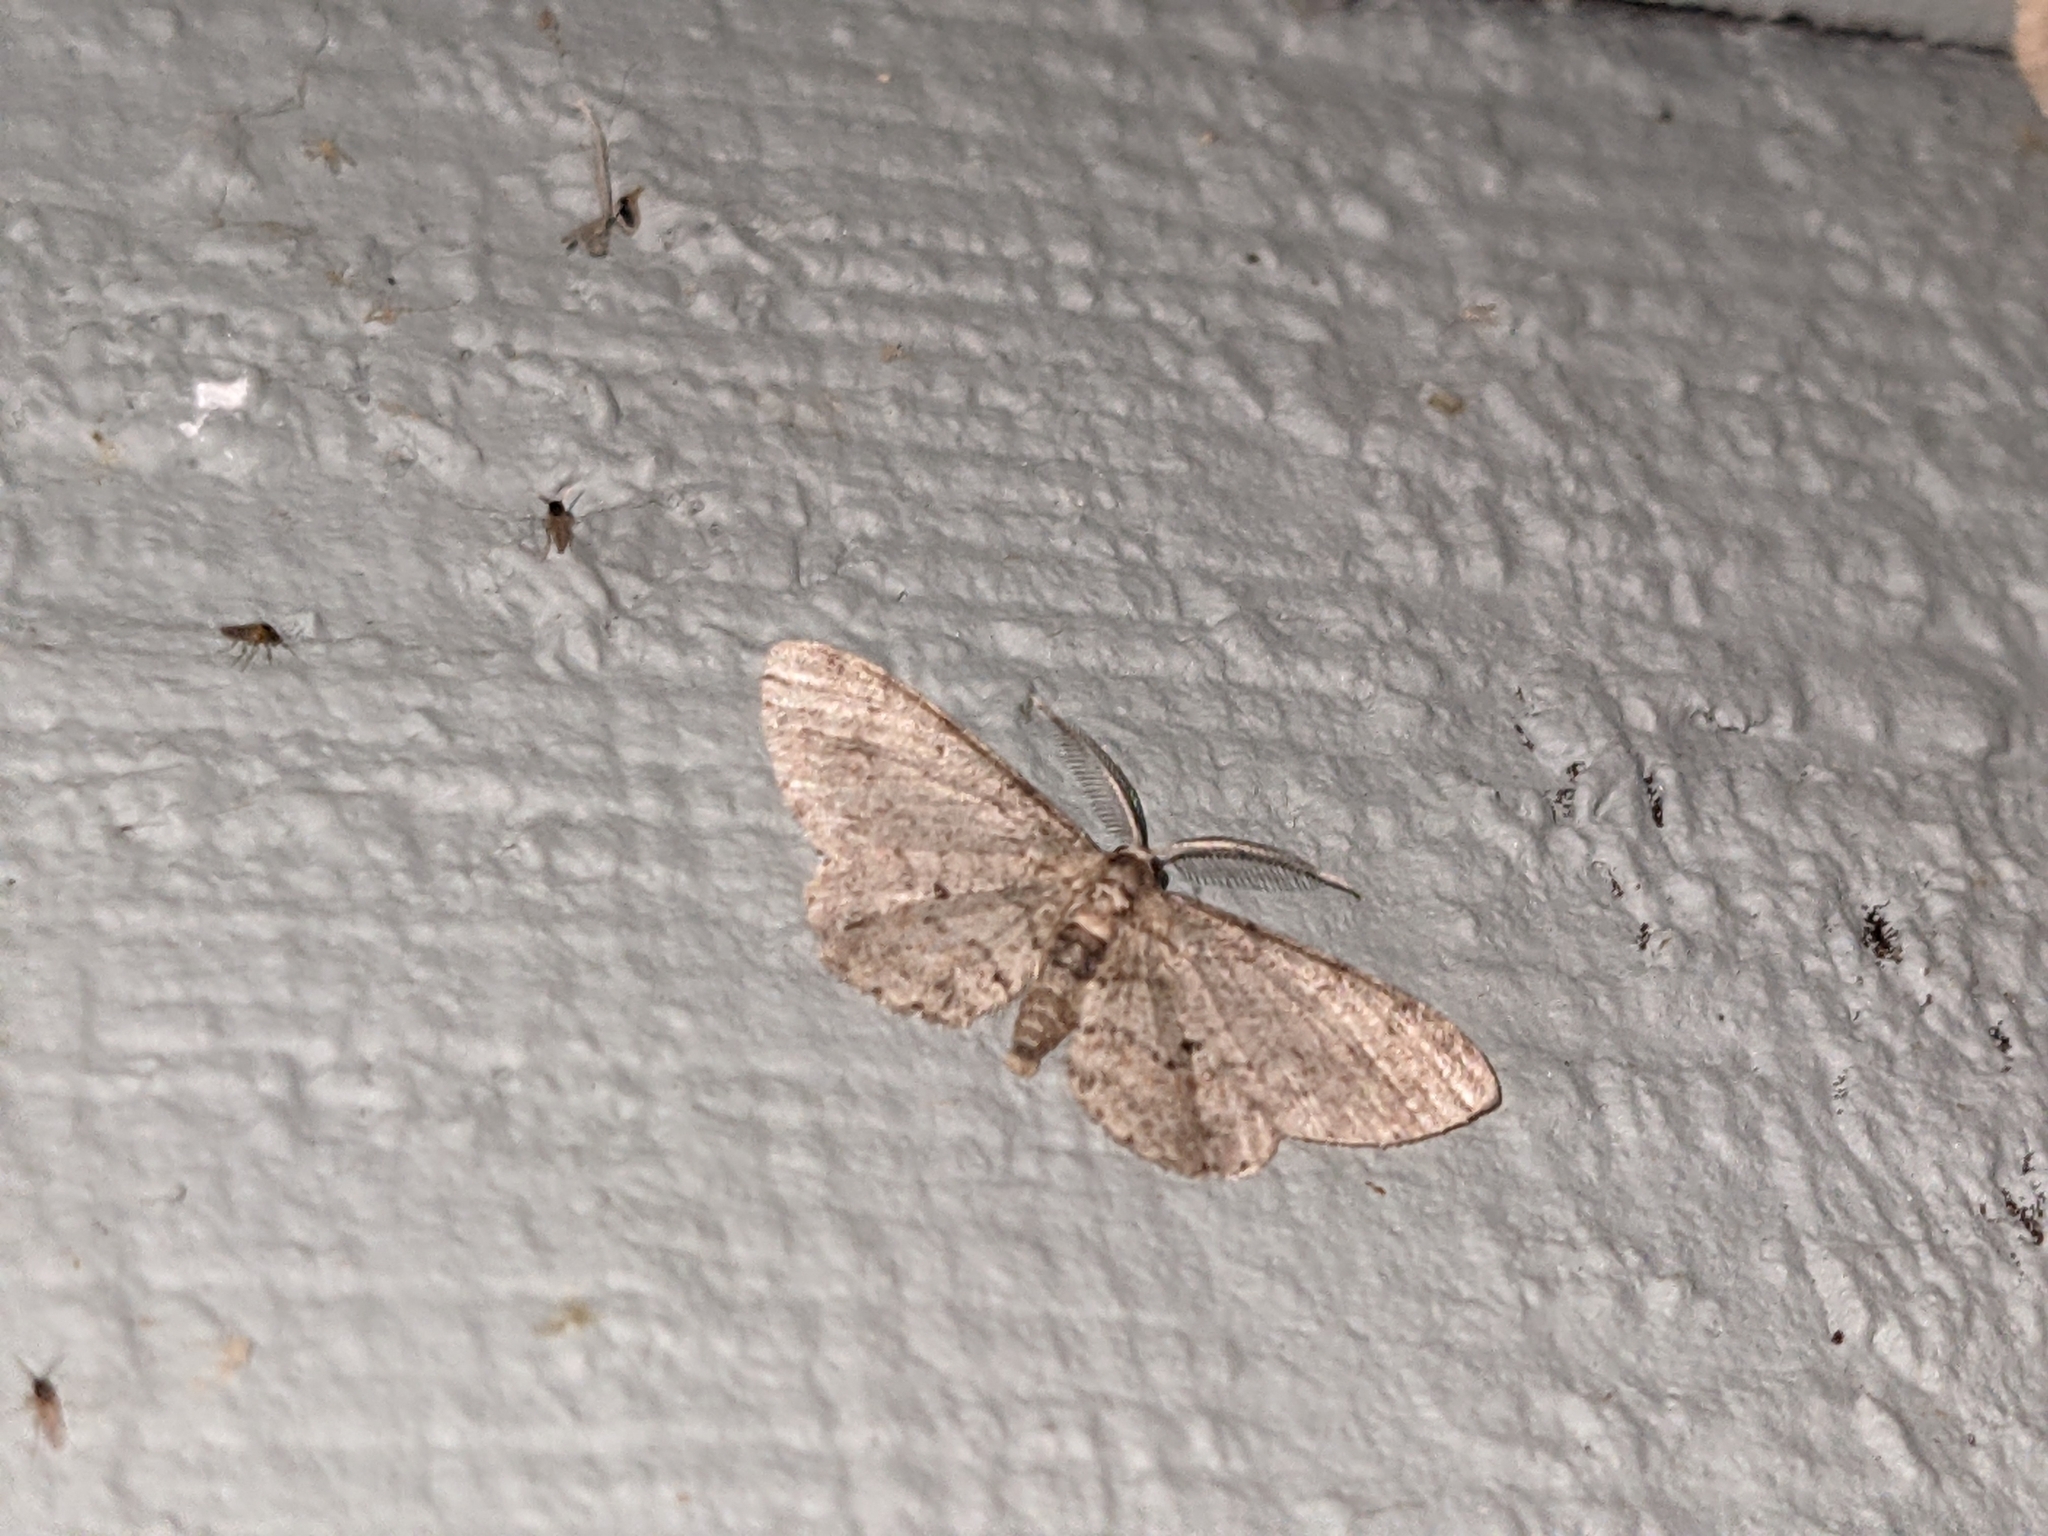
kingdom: Animalia
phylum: Arthropoda
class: Insecta
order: Lepidoptera
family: Geometridae
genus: Glenoides
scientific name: Glenoides texanaria
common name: Texas gray
